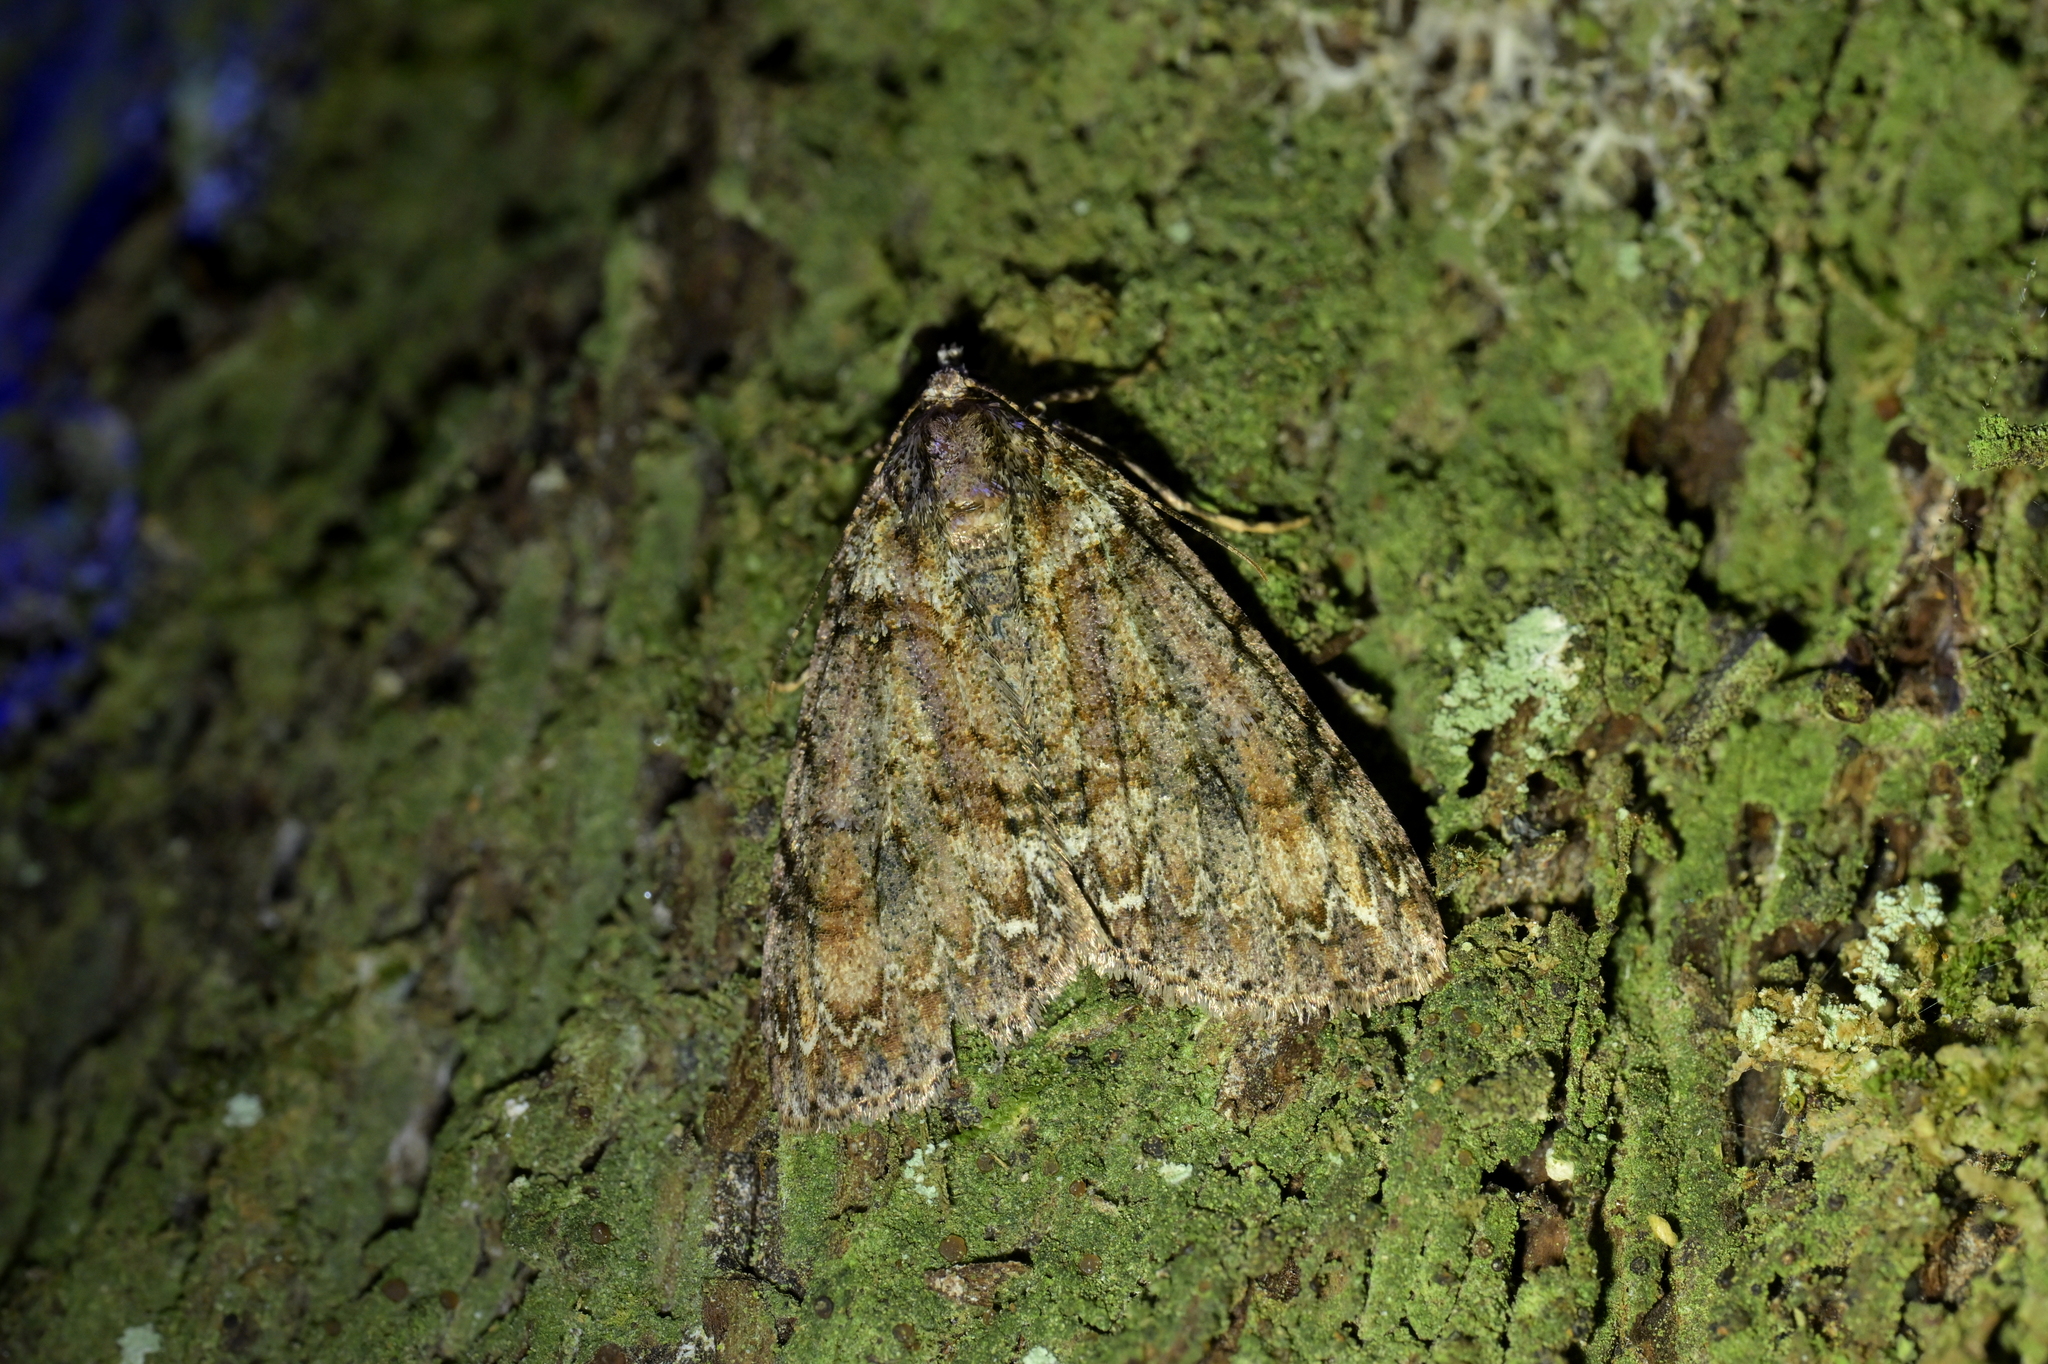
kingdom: Animalia
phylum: Arthropoda
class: Insecta
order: Lepidoptera
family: Geometridae
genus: Pseudocoremia
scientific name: Pseudocoremia suavis
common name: Common forest looper
